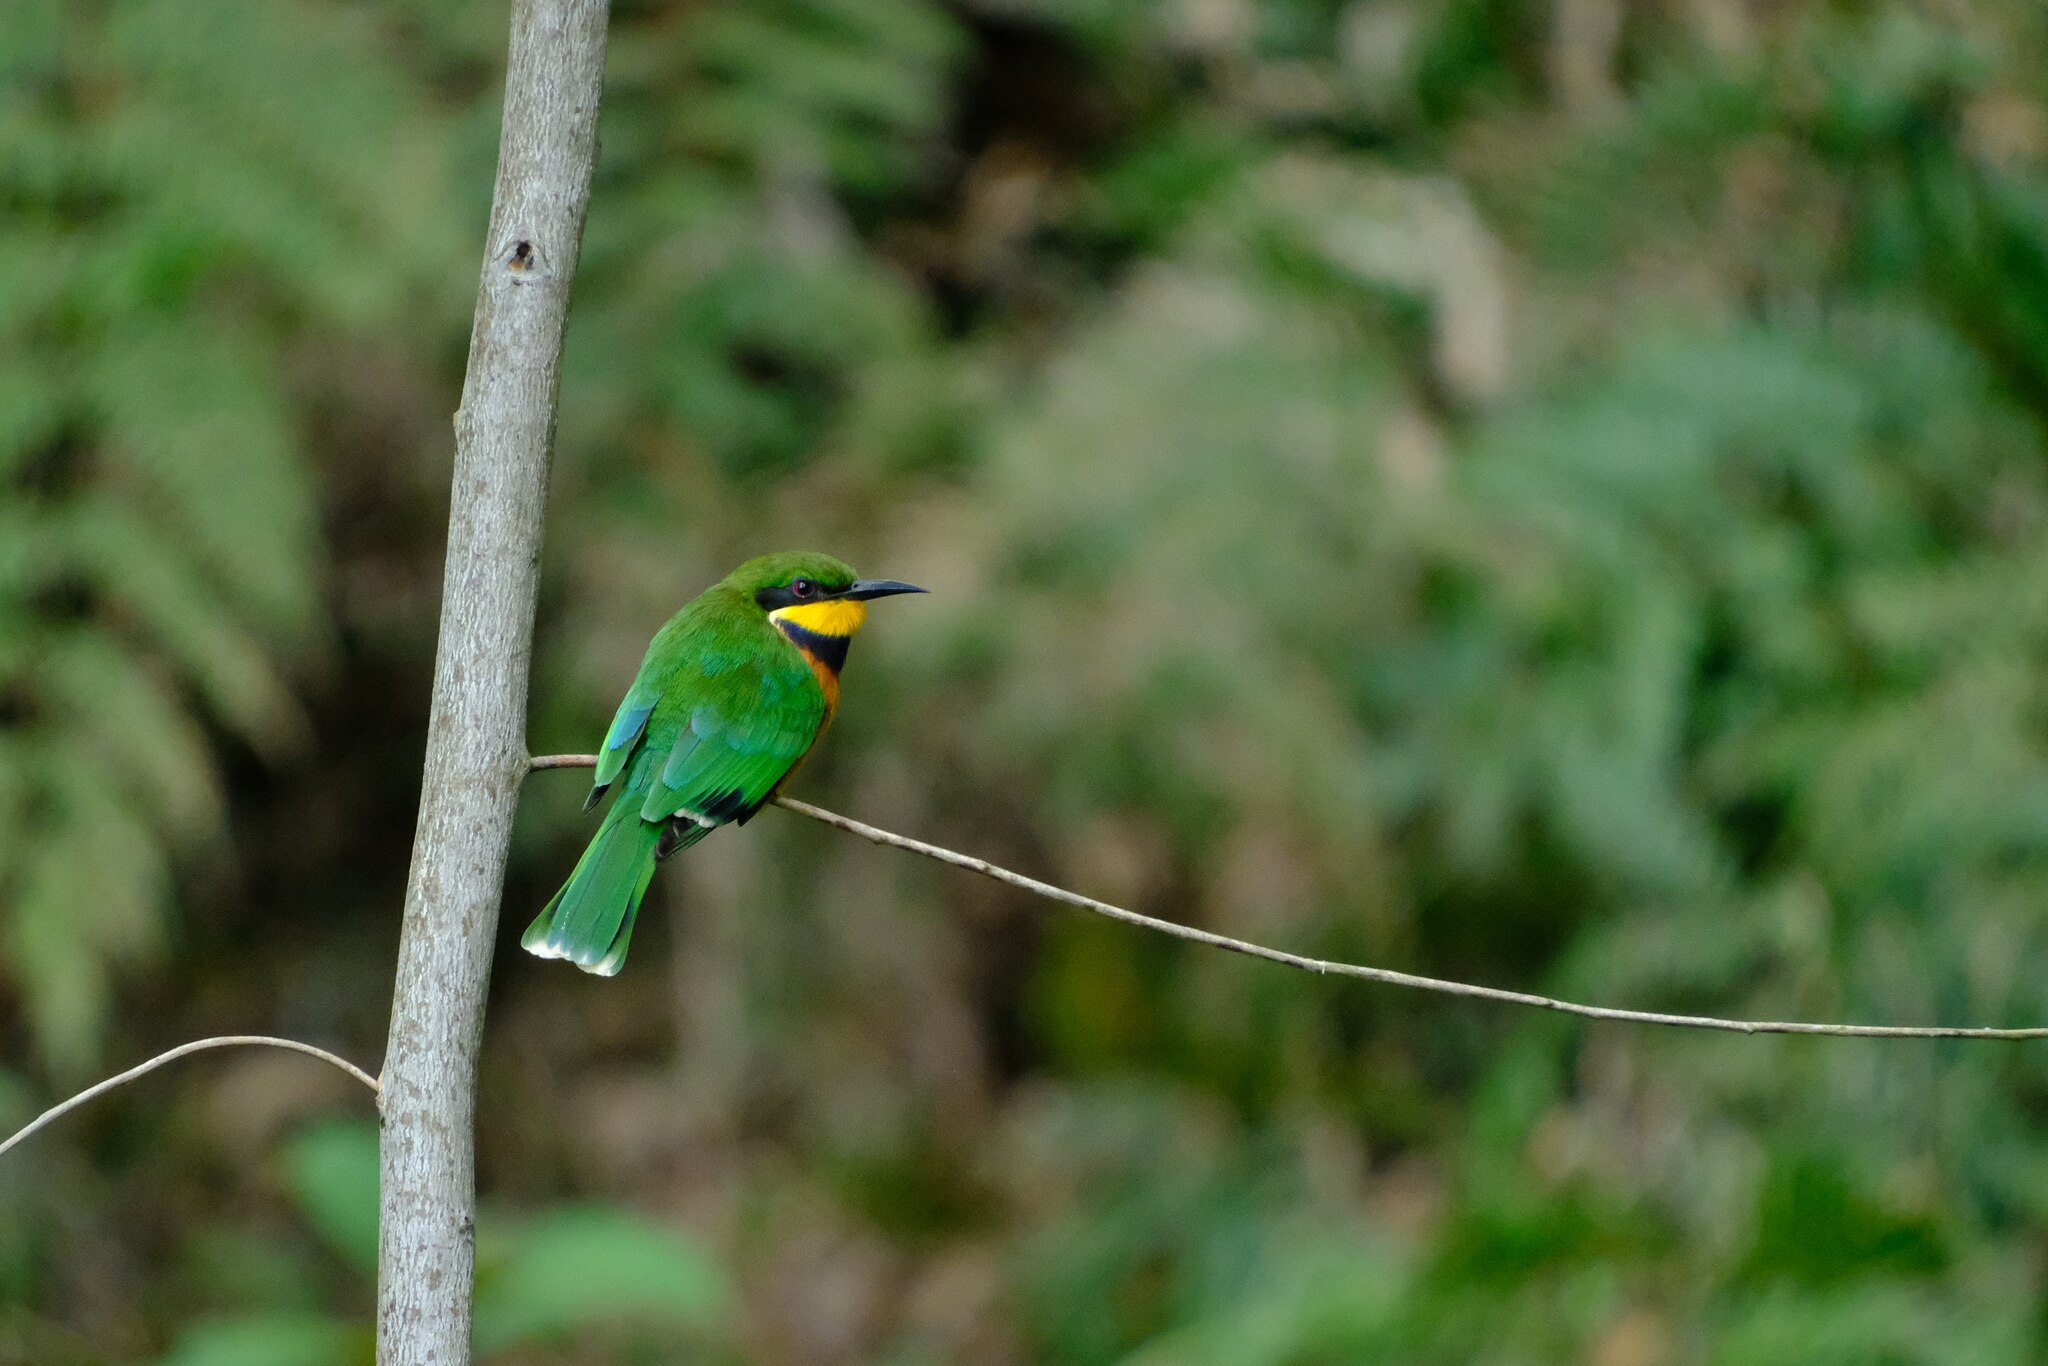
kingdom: Animalia
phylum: Chordata
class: Aves
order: Coraciiformes
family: Meropidae
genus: Merops
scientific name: Merops oreobates
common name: Cinnamon-chested bee-eater
